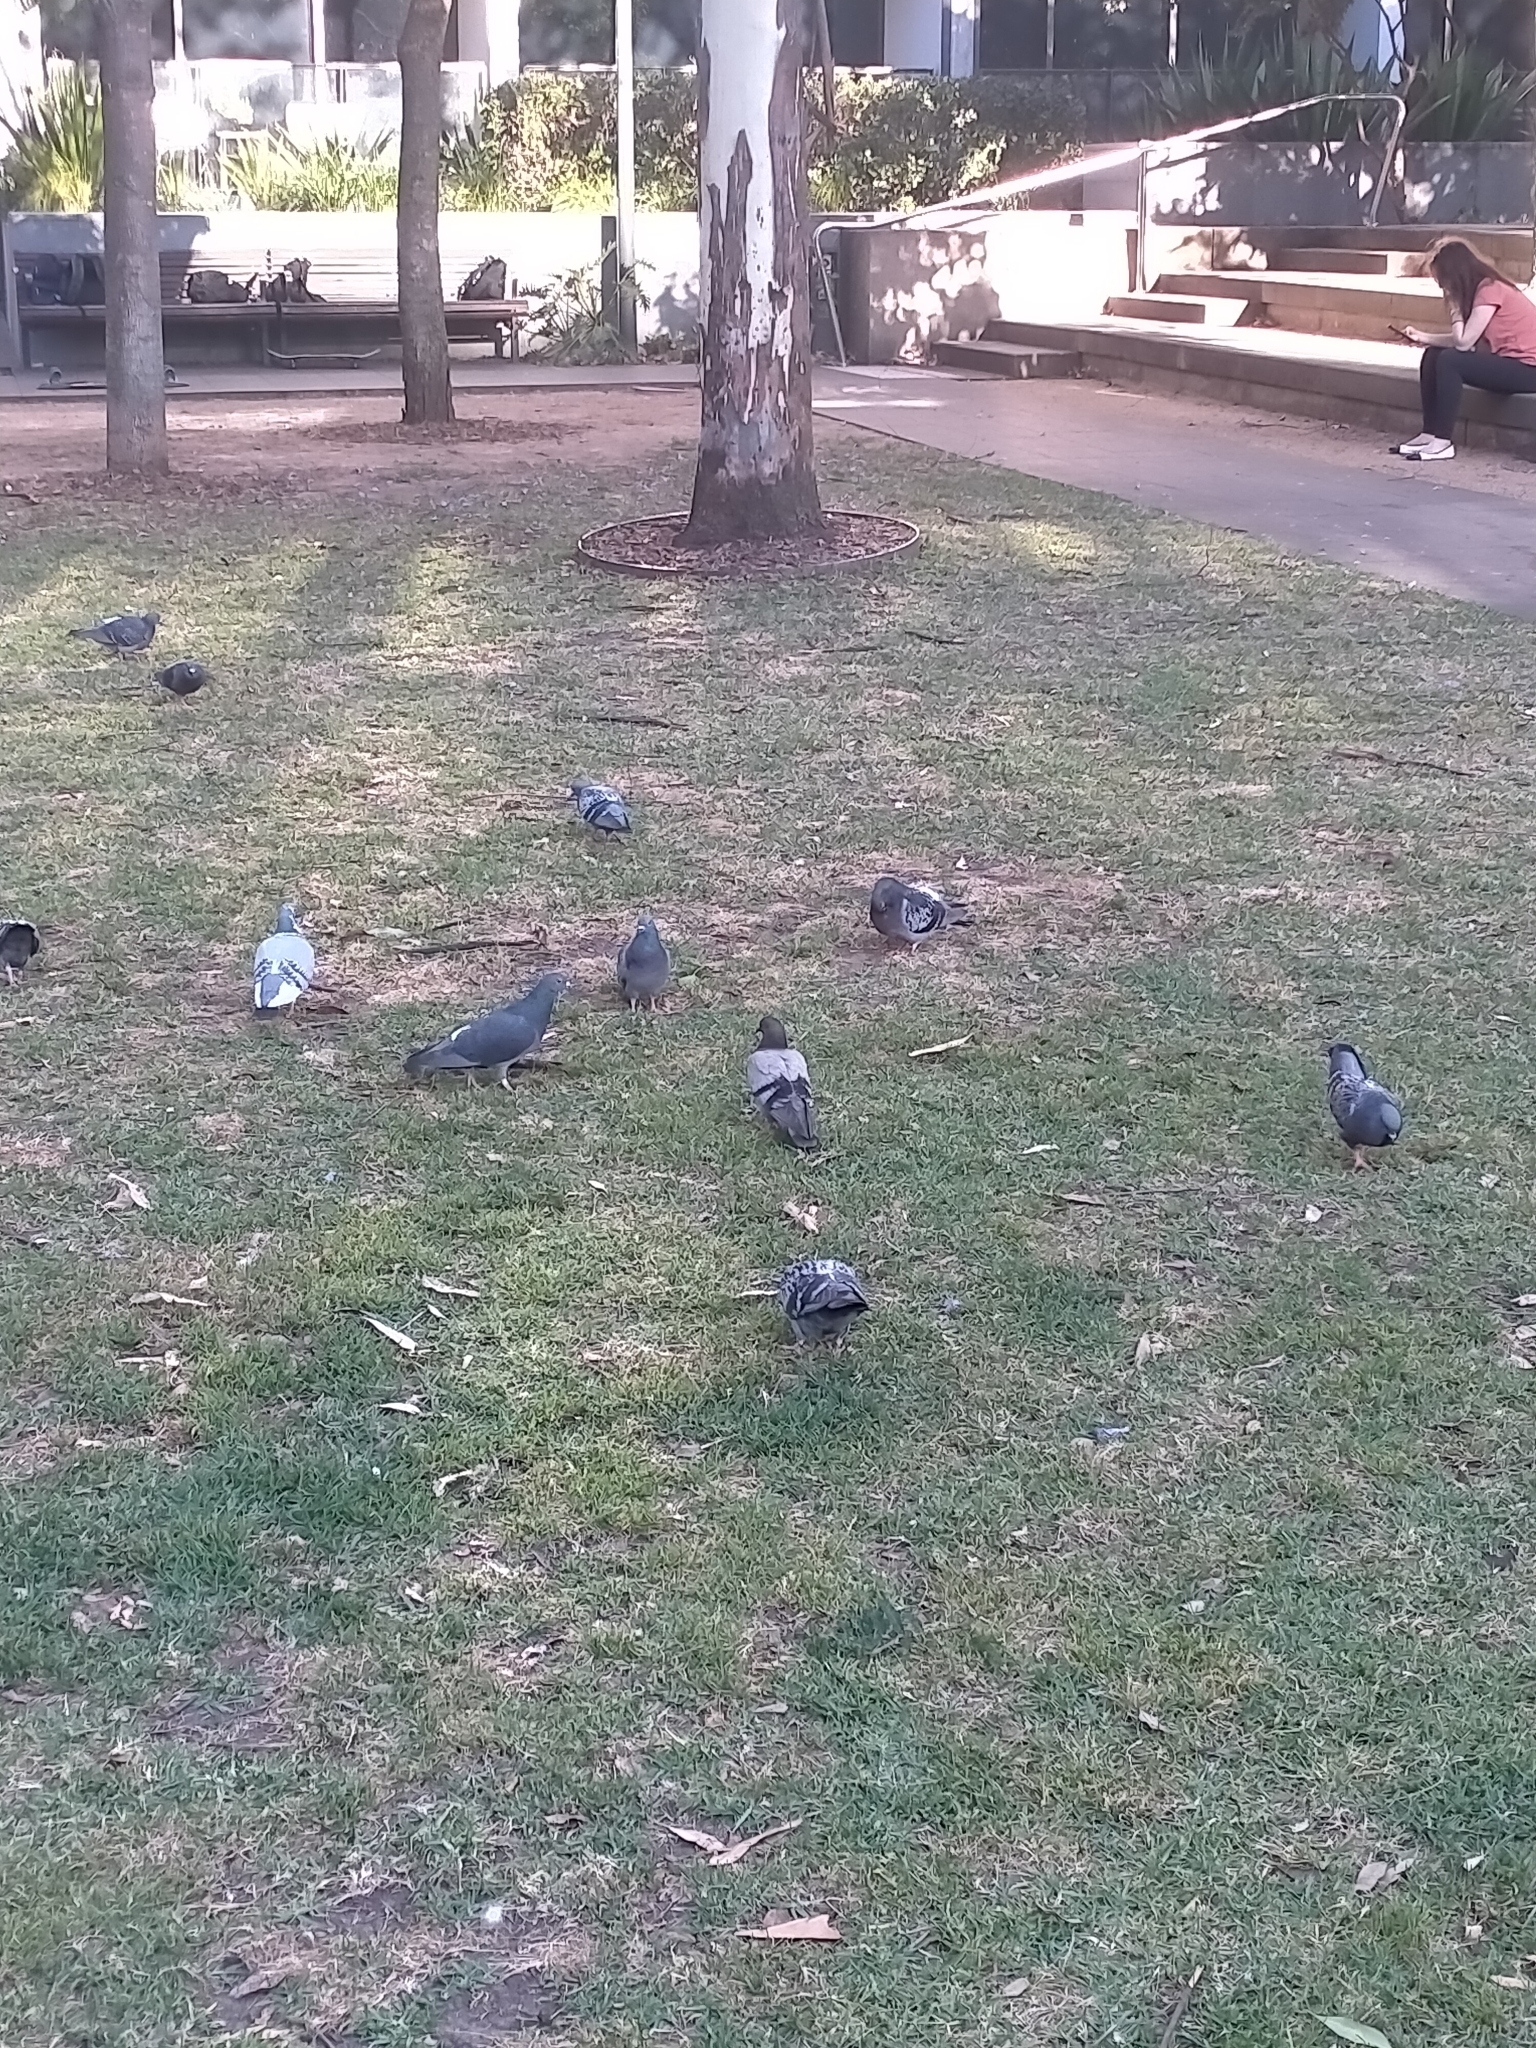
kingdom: Animalia
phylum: Chordata
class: Aves
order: Columbiformes
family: Columbidae
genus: Columba
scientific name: Columba livia
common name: Rock pigeon
